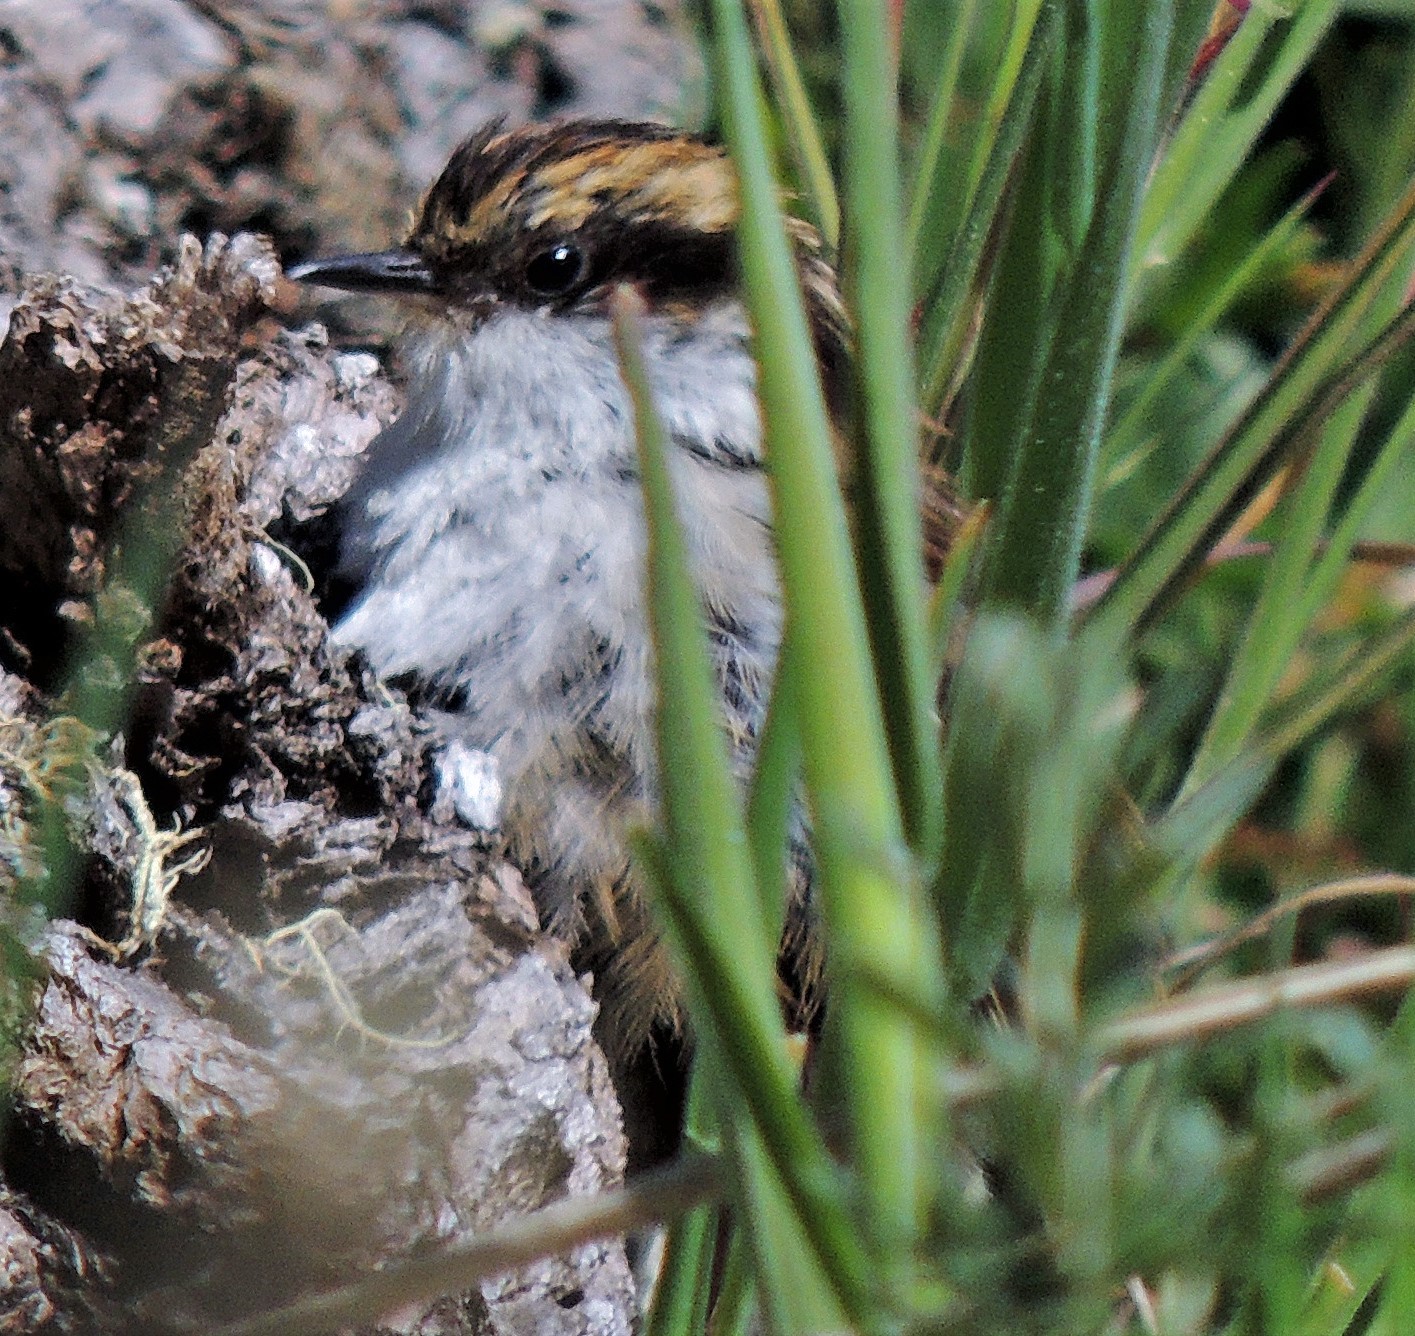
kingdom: Animalia
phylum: Chordata
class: Aves
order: Passeriformes
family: Furnariidae
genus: Aphrastura
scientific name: Aphrastura spinicauda
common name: Thorn-tailed rayadito
